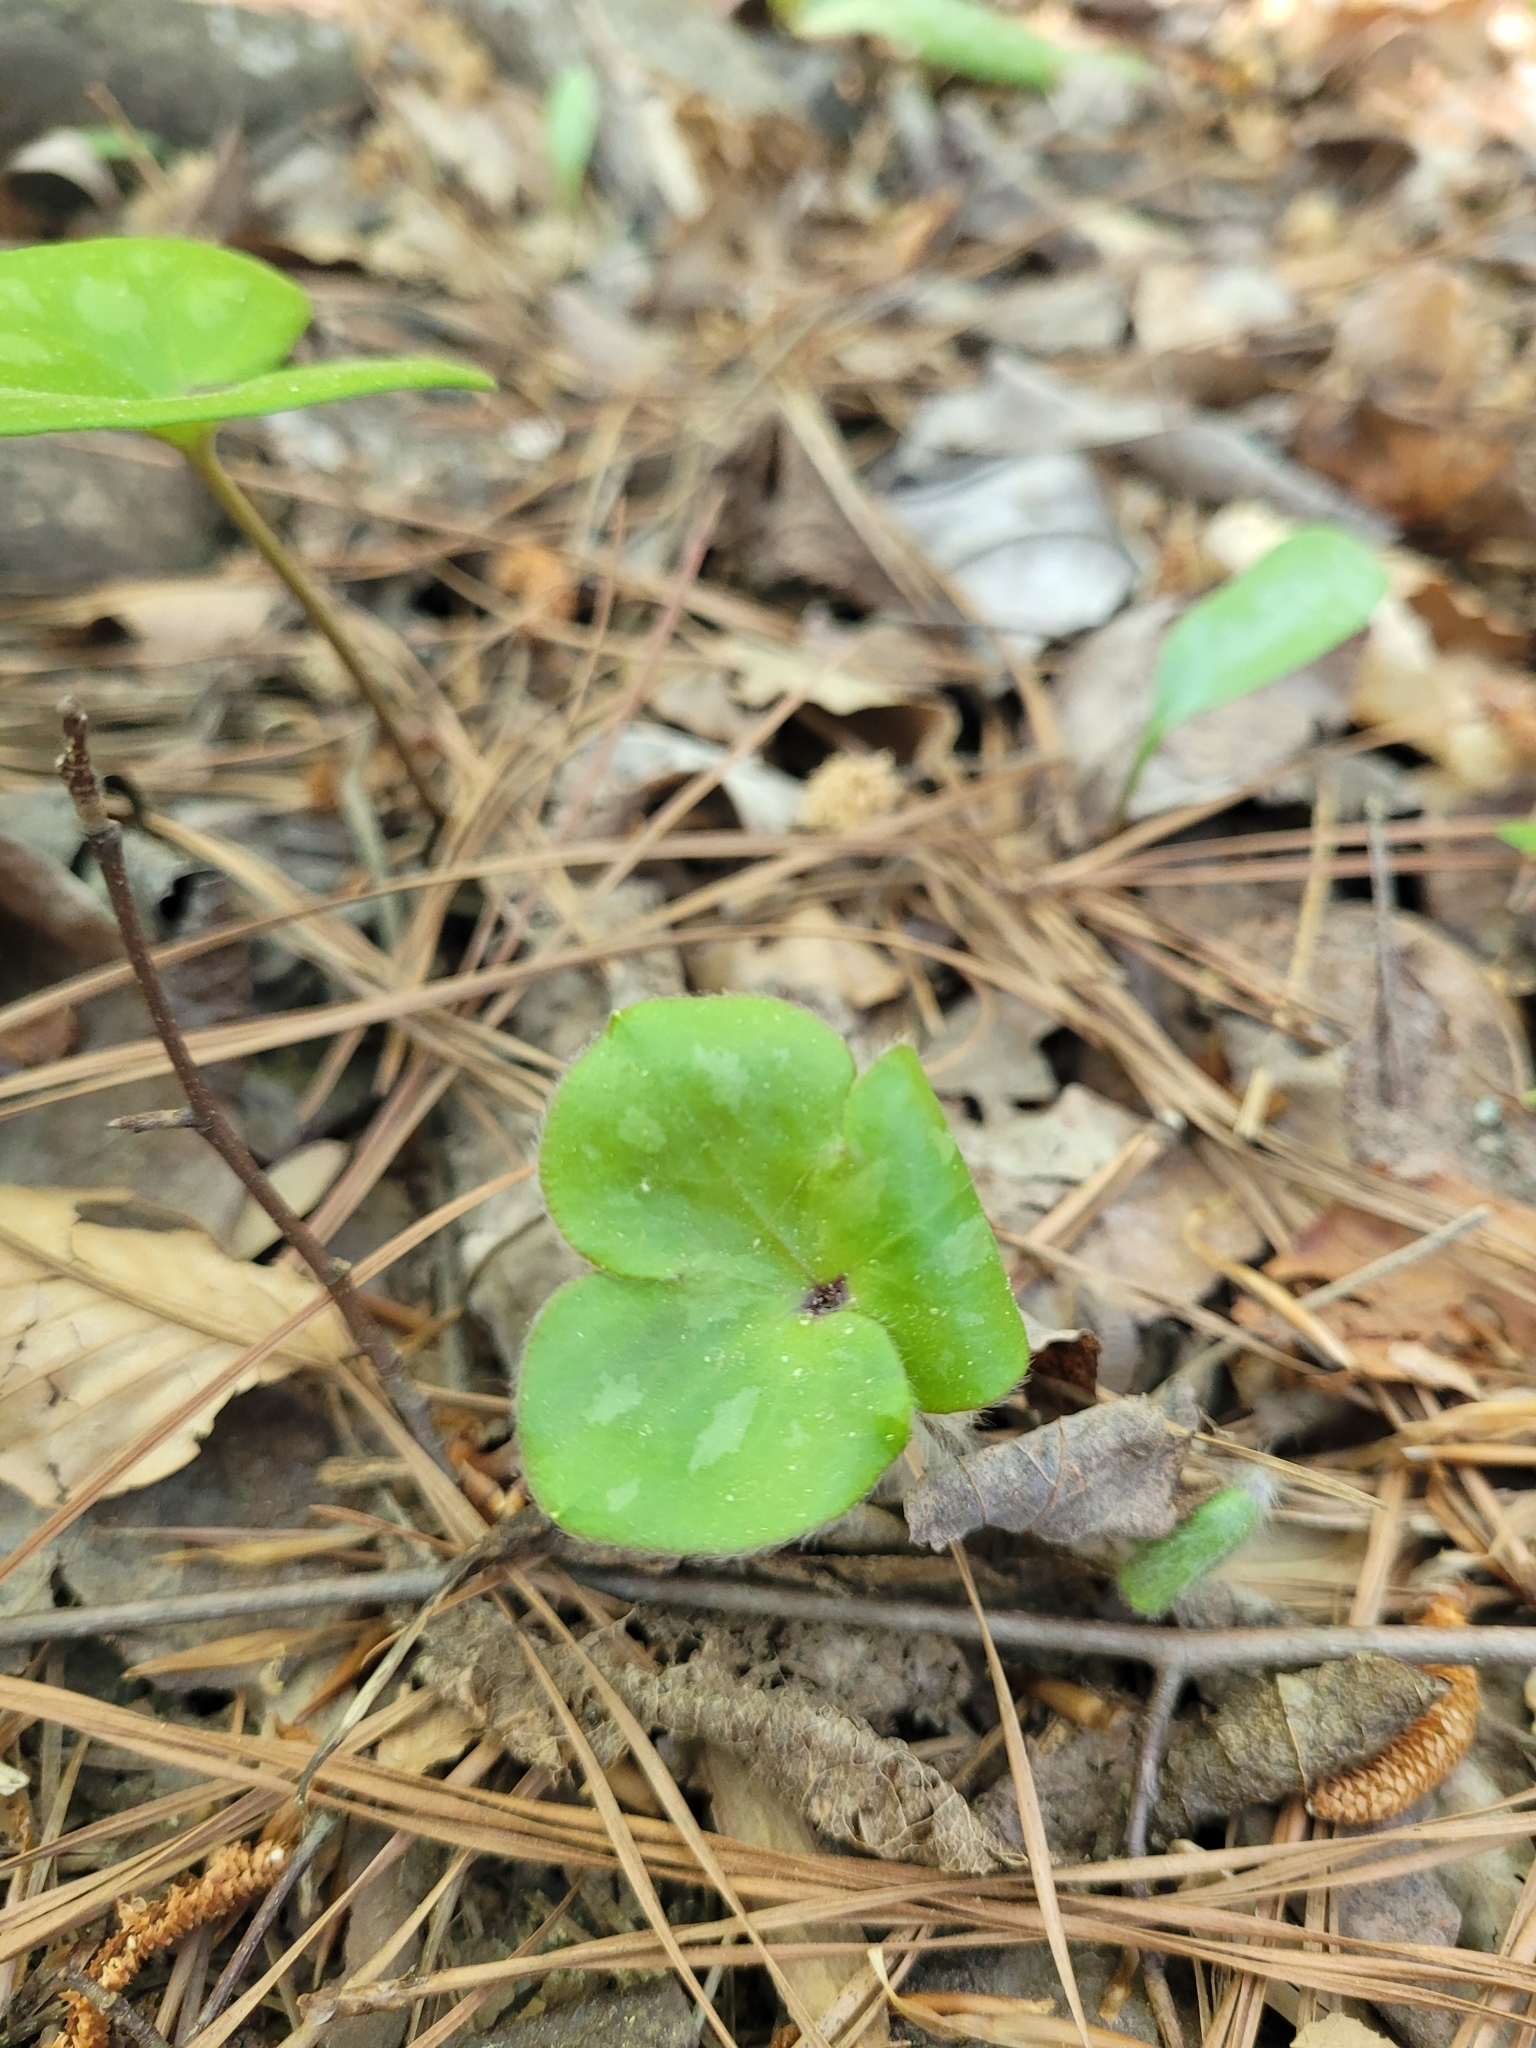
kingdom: Plantae
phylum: Tracheophyta
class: Magnoliopsida
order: Ranunculales
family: Ranunculaceae
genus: Hepatica
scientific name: Hepatica americana
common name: American hepatica
